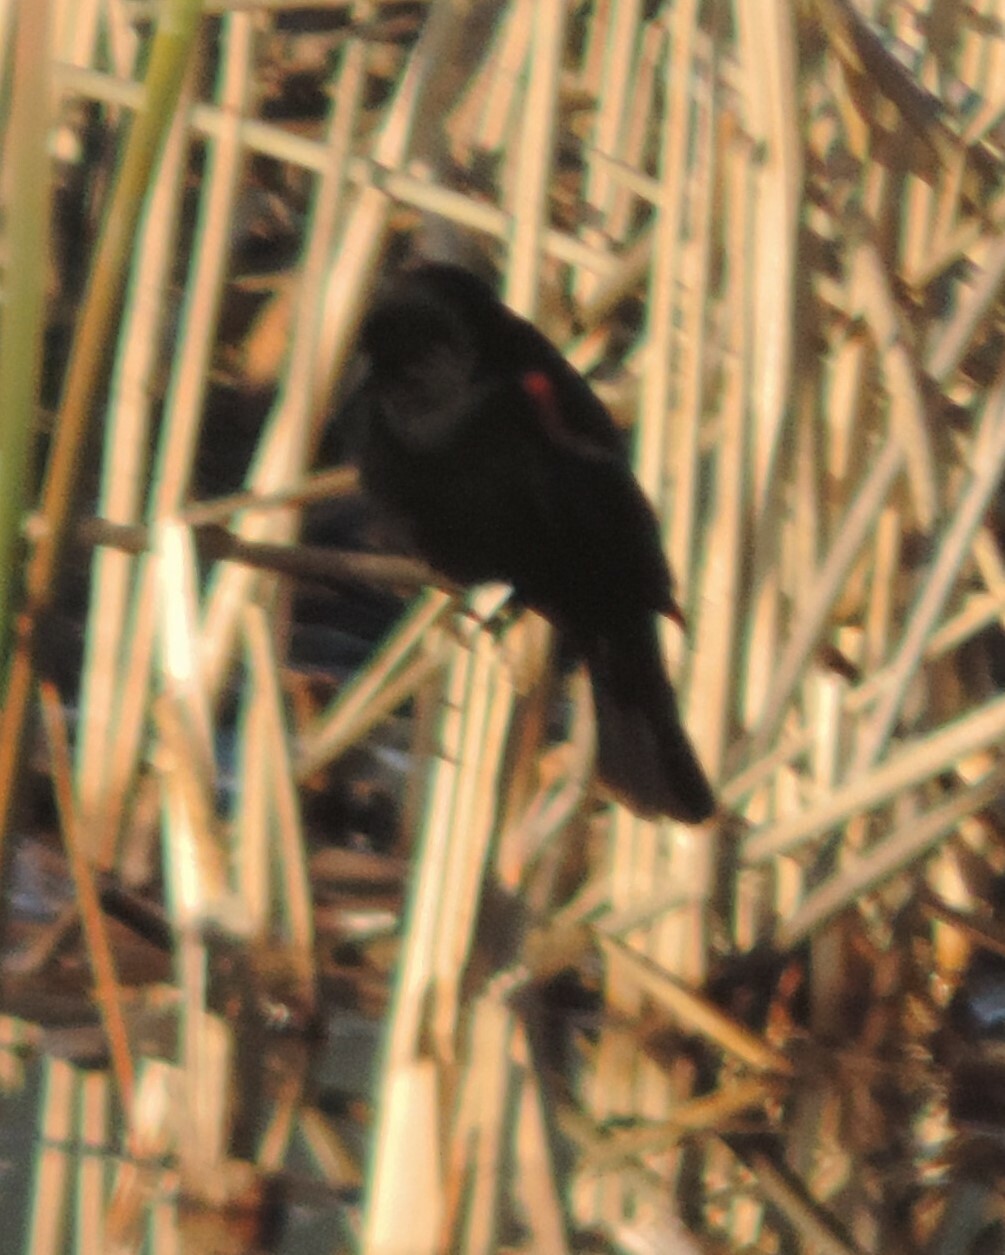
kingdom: Animalia
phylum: Chordata
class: Aves
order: Passeriformes
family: Icteridae
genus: Agelaius
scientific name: Agelaius phoeniceus
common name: Red-winged blackbird
